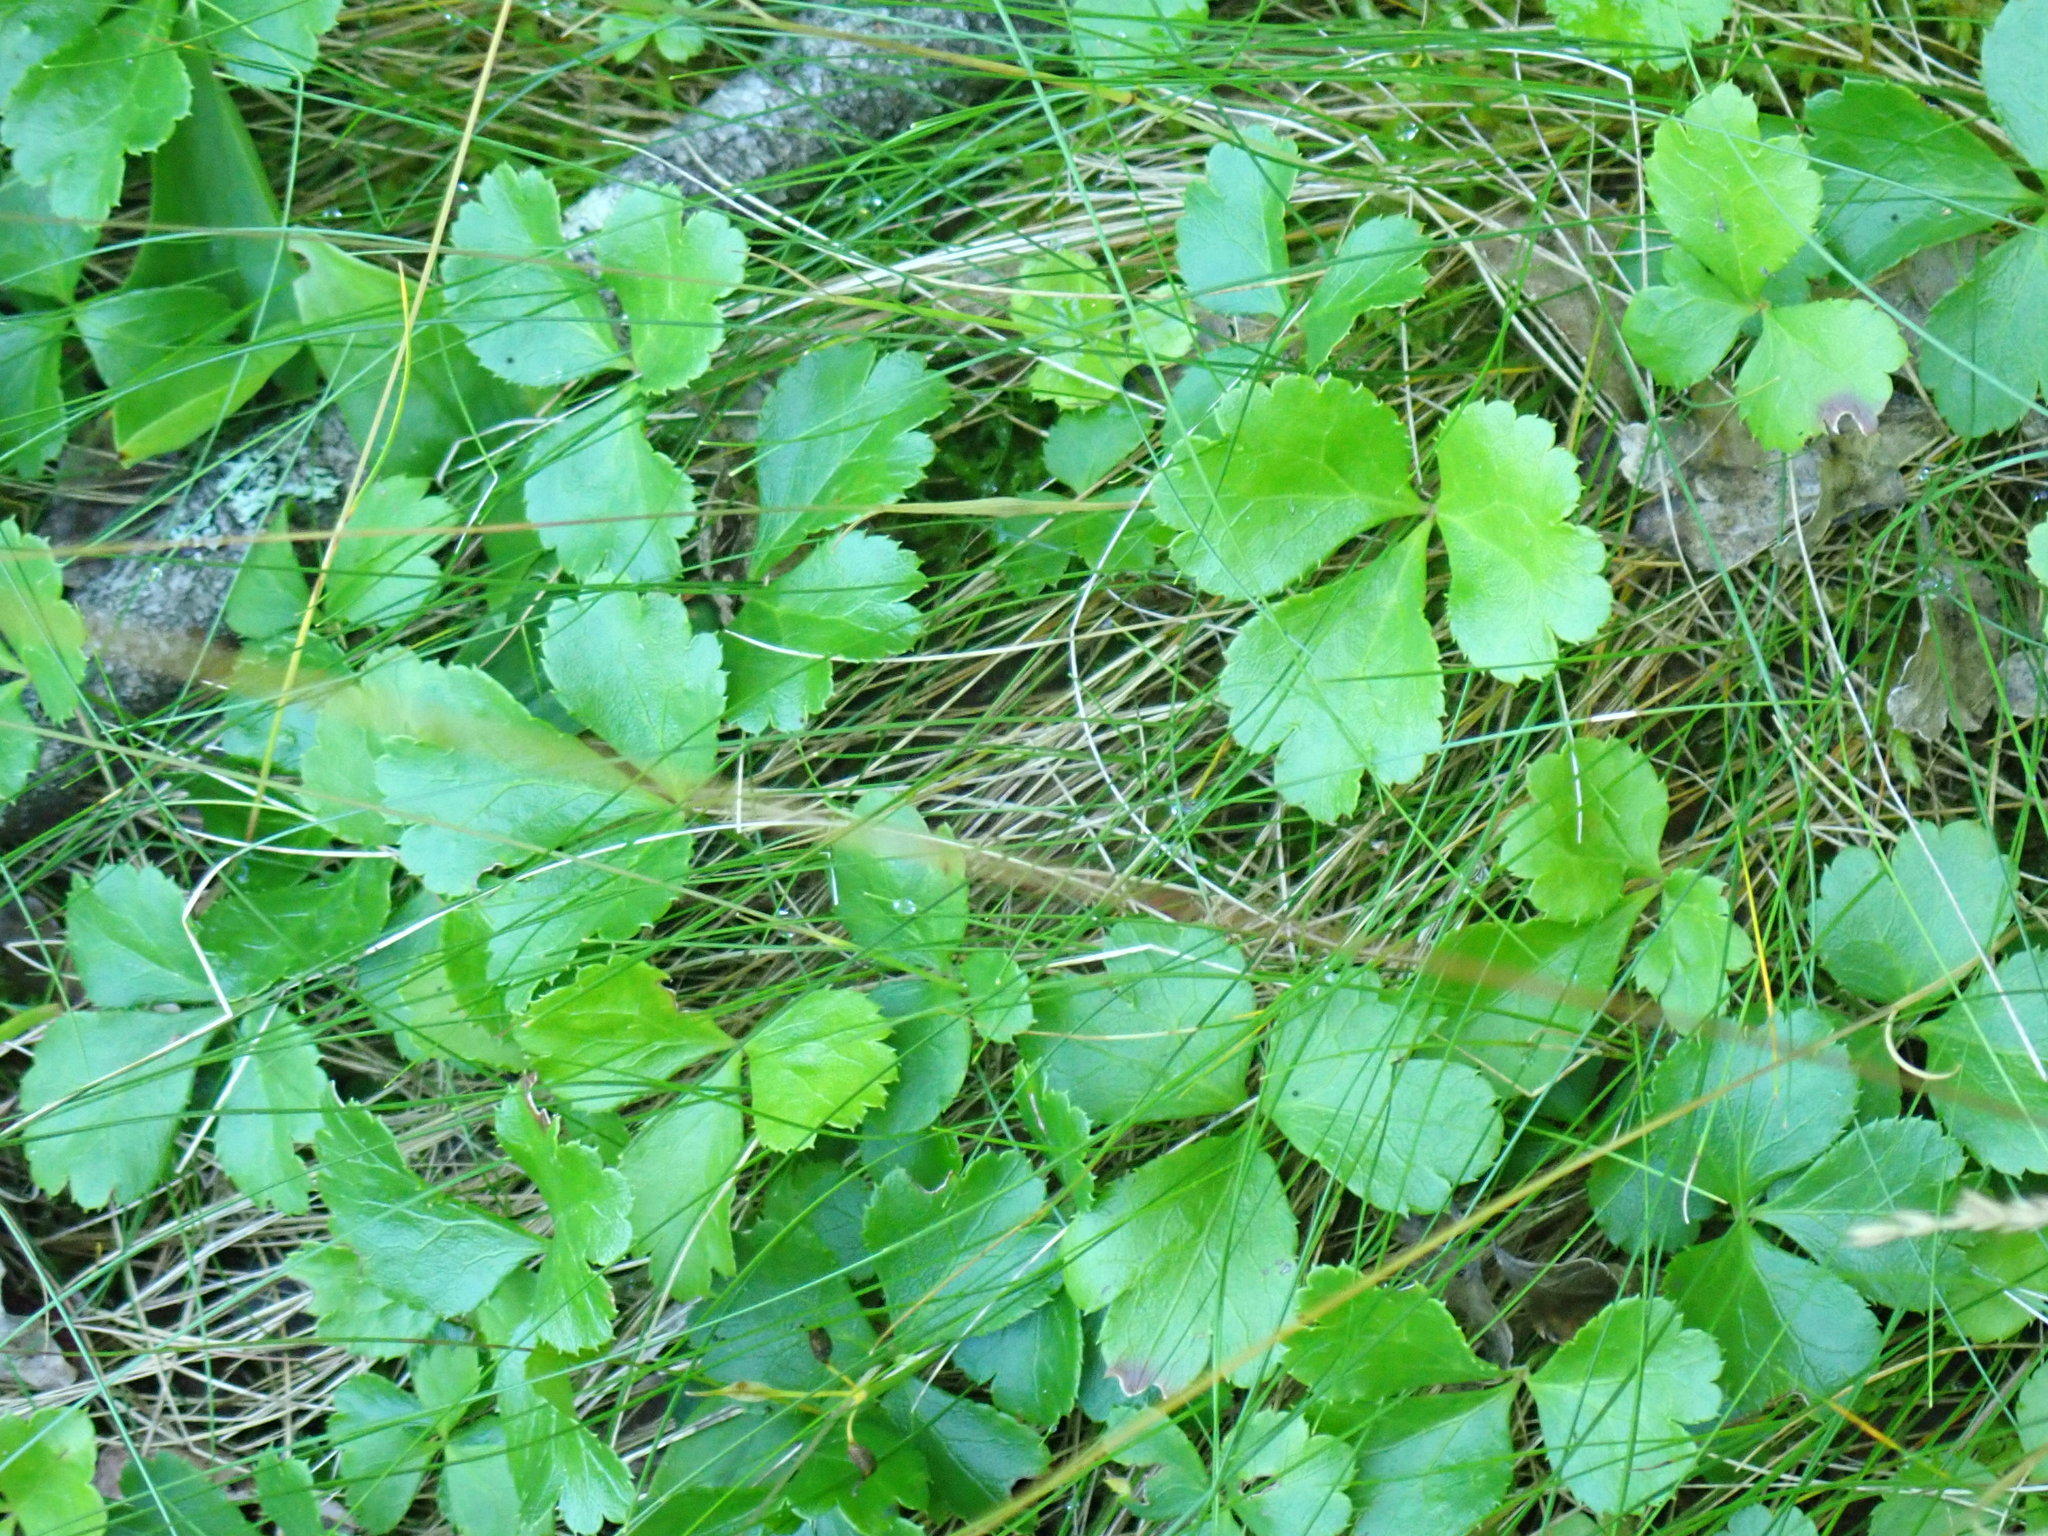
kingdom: Plantae
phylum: Tracheophyta
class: Magnoliopsida
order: Ranunculales
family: Ranunculaceae
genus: Coptis
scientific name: Coptis trifolia
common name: Canker-root
